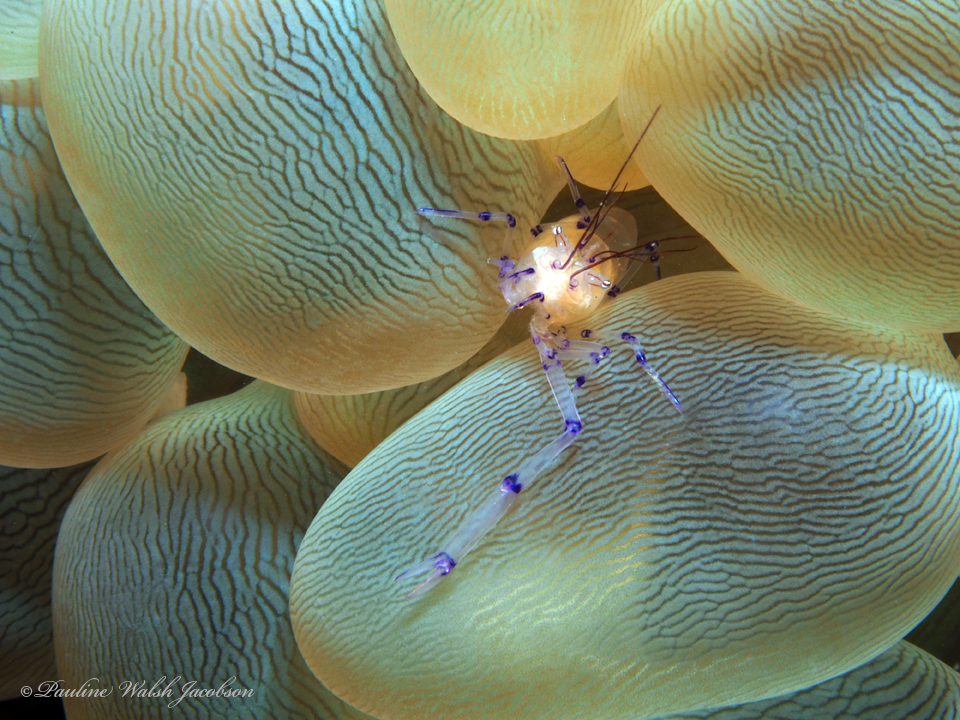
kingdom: Animalia
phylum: Arthropoda
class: Malacostraca
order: Decapoda
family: Palaemonidae
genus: Vir
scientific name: Vir colemani
